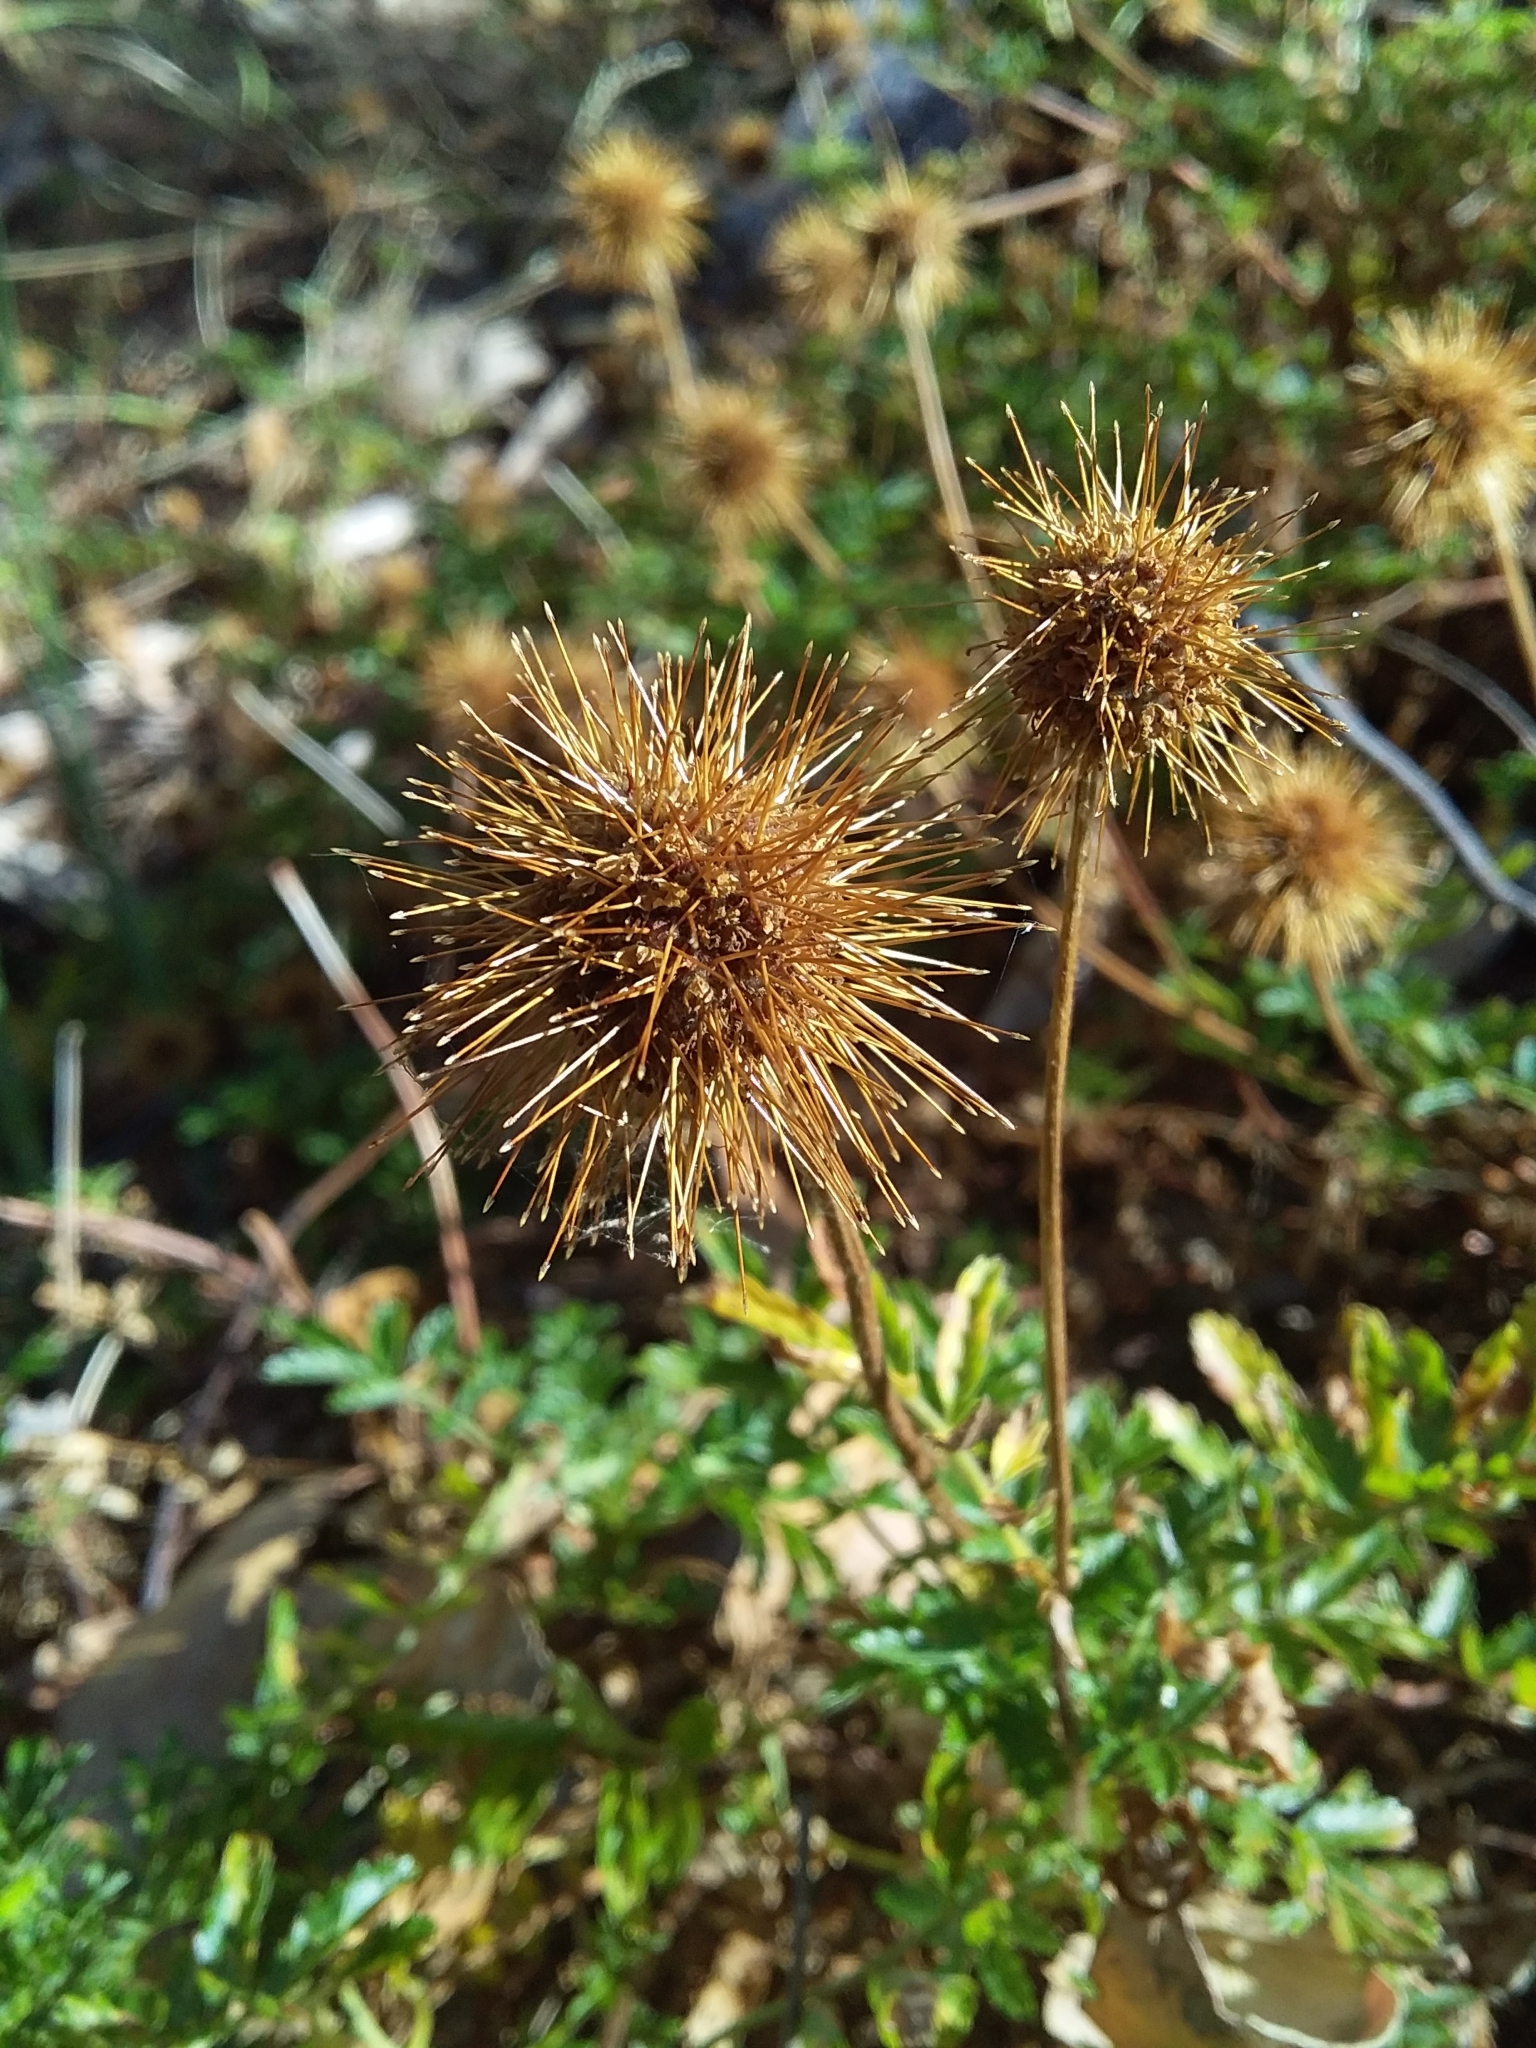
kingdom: Plantae
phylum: Tracheophyta
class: Magnoliopsida
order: Rosales
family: Rosaceae
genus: Acaena
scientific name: Acaena novae-zelandiae
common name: Pirri-pirri-bur
